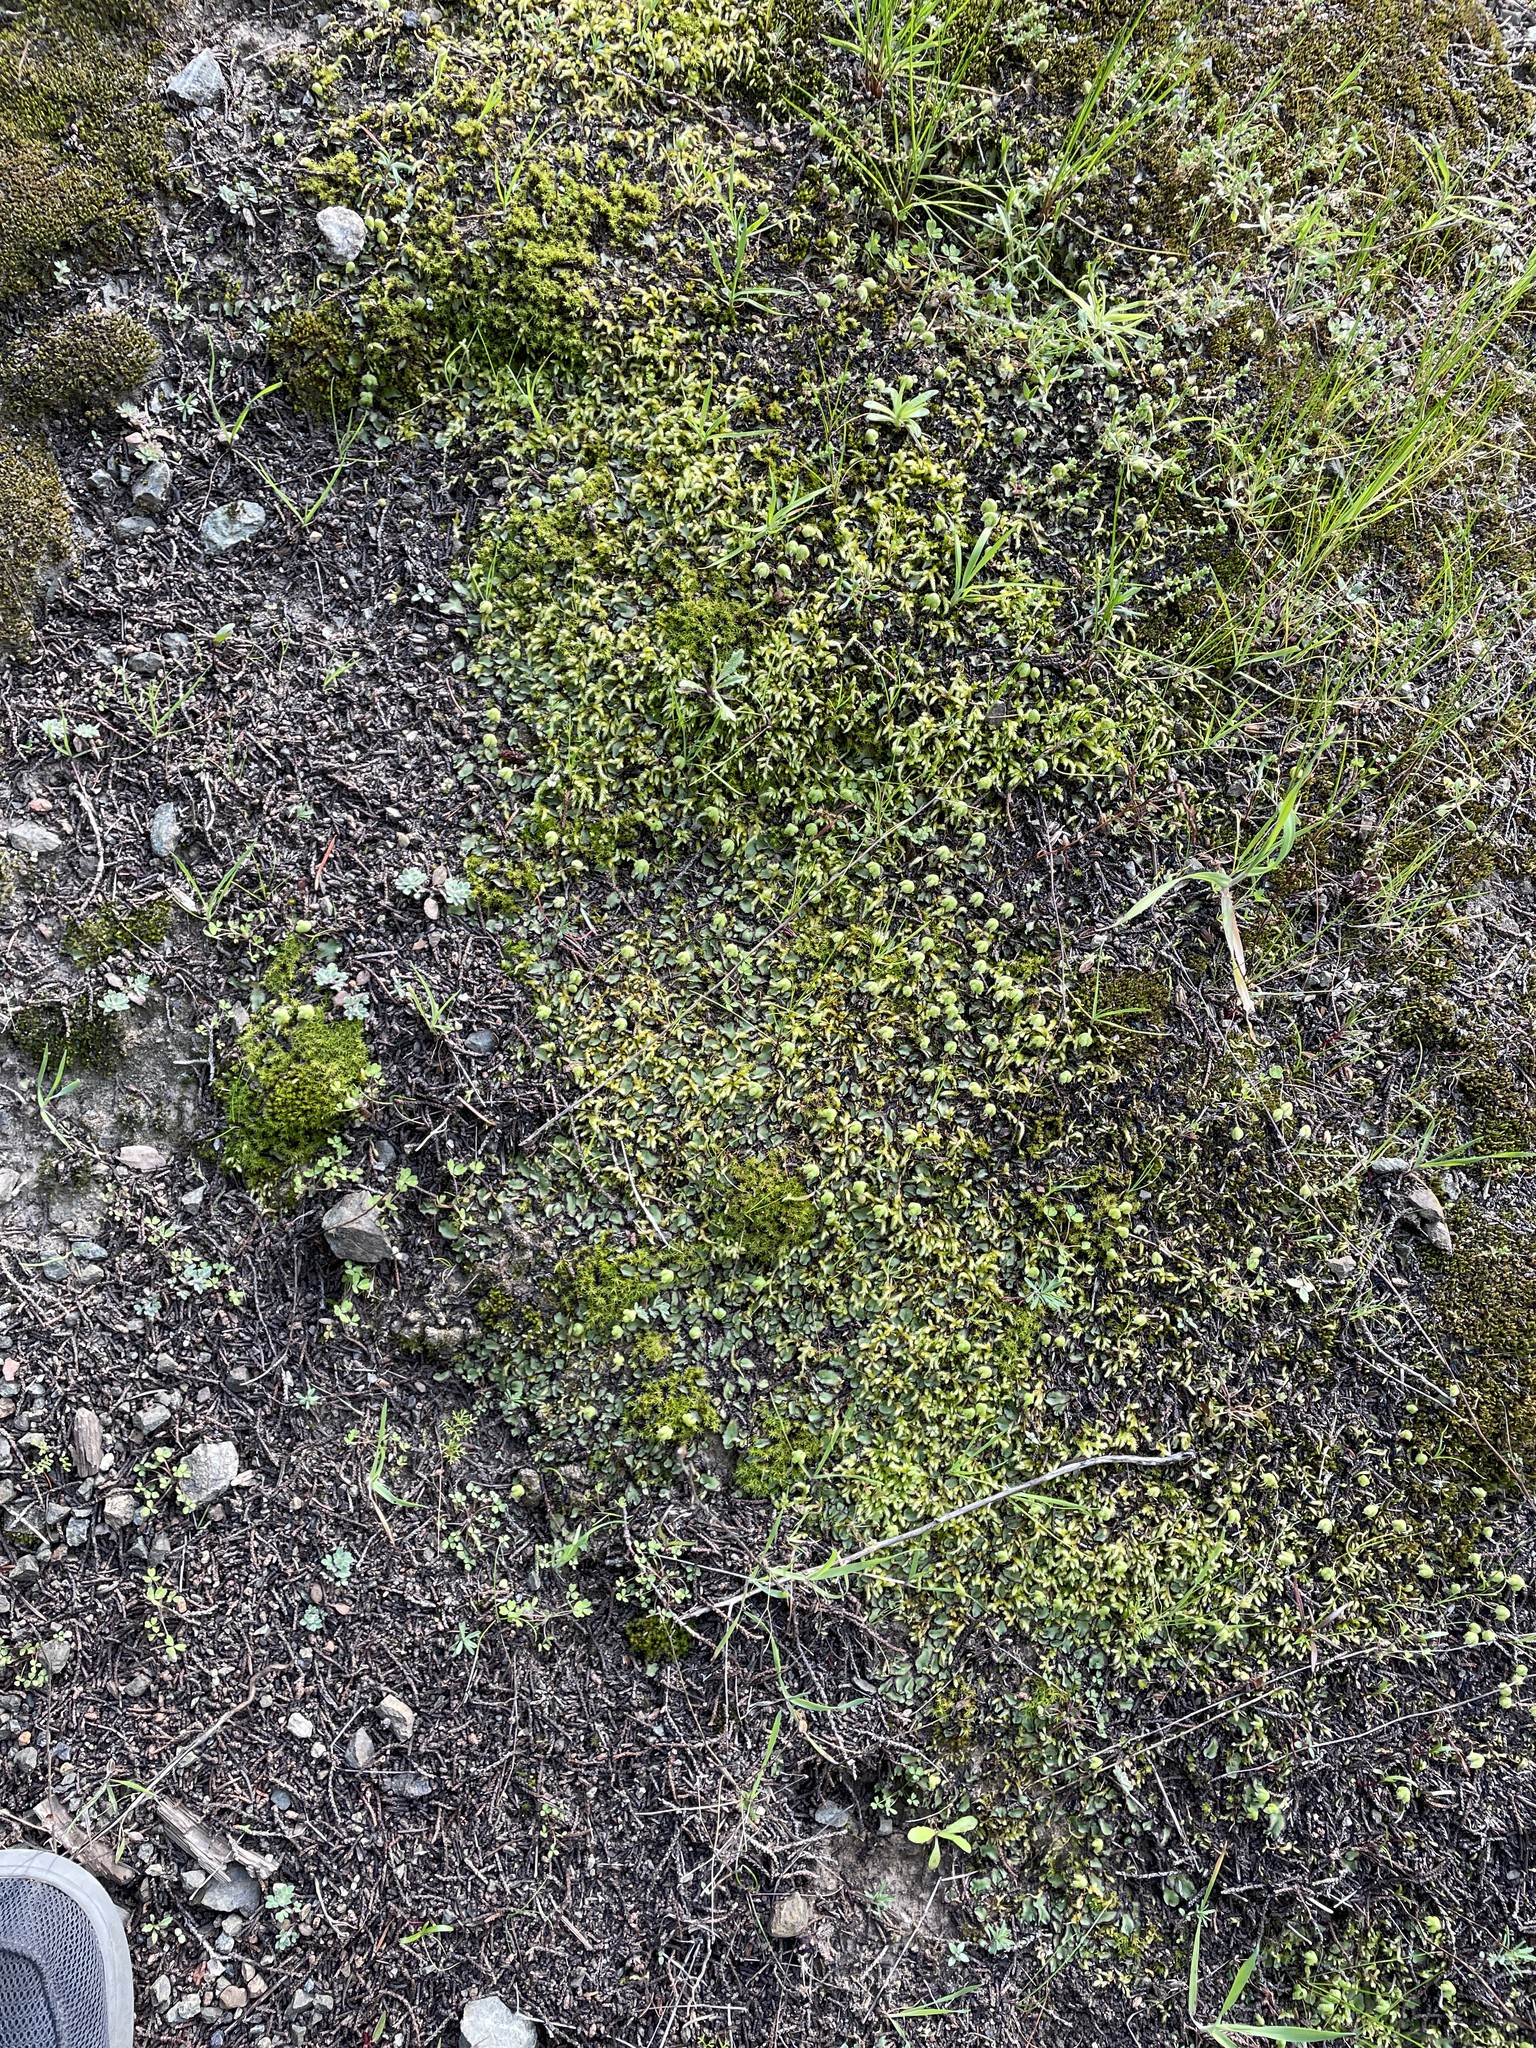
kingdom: Plantae
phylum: Marchantiophyta
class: Marchantiopsida
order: Marchantiales
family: Aytoniaceae
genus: Asterella
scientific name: Asterella californica
